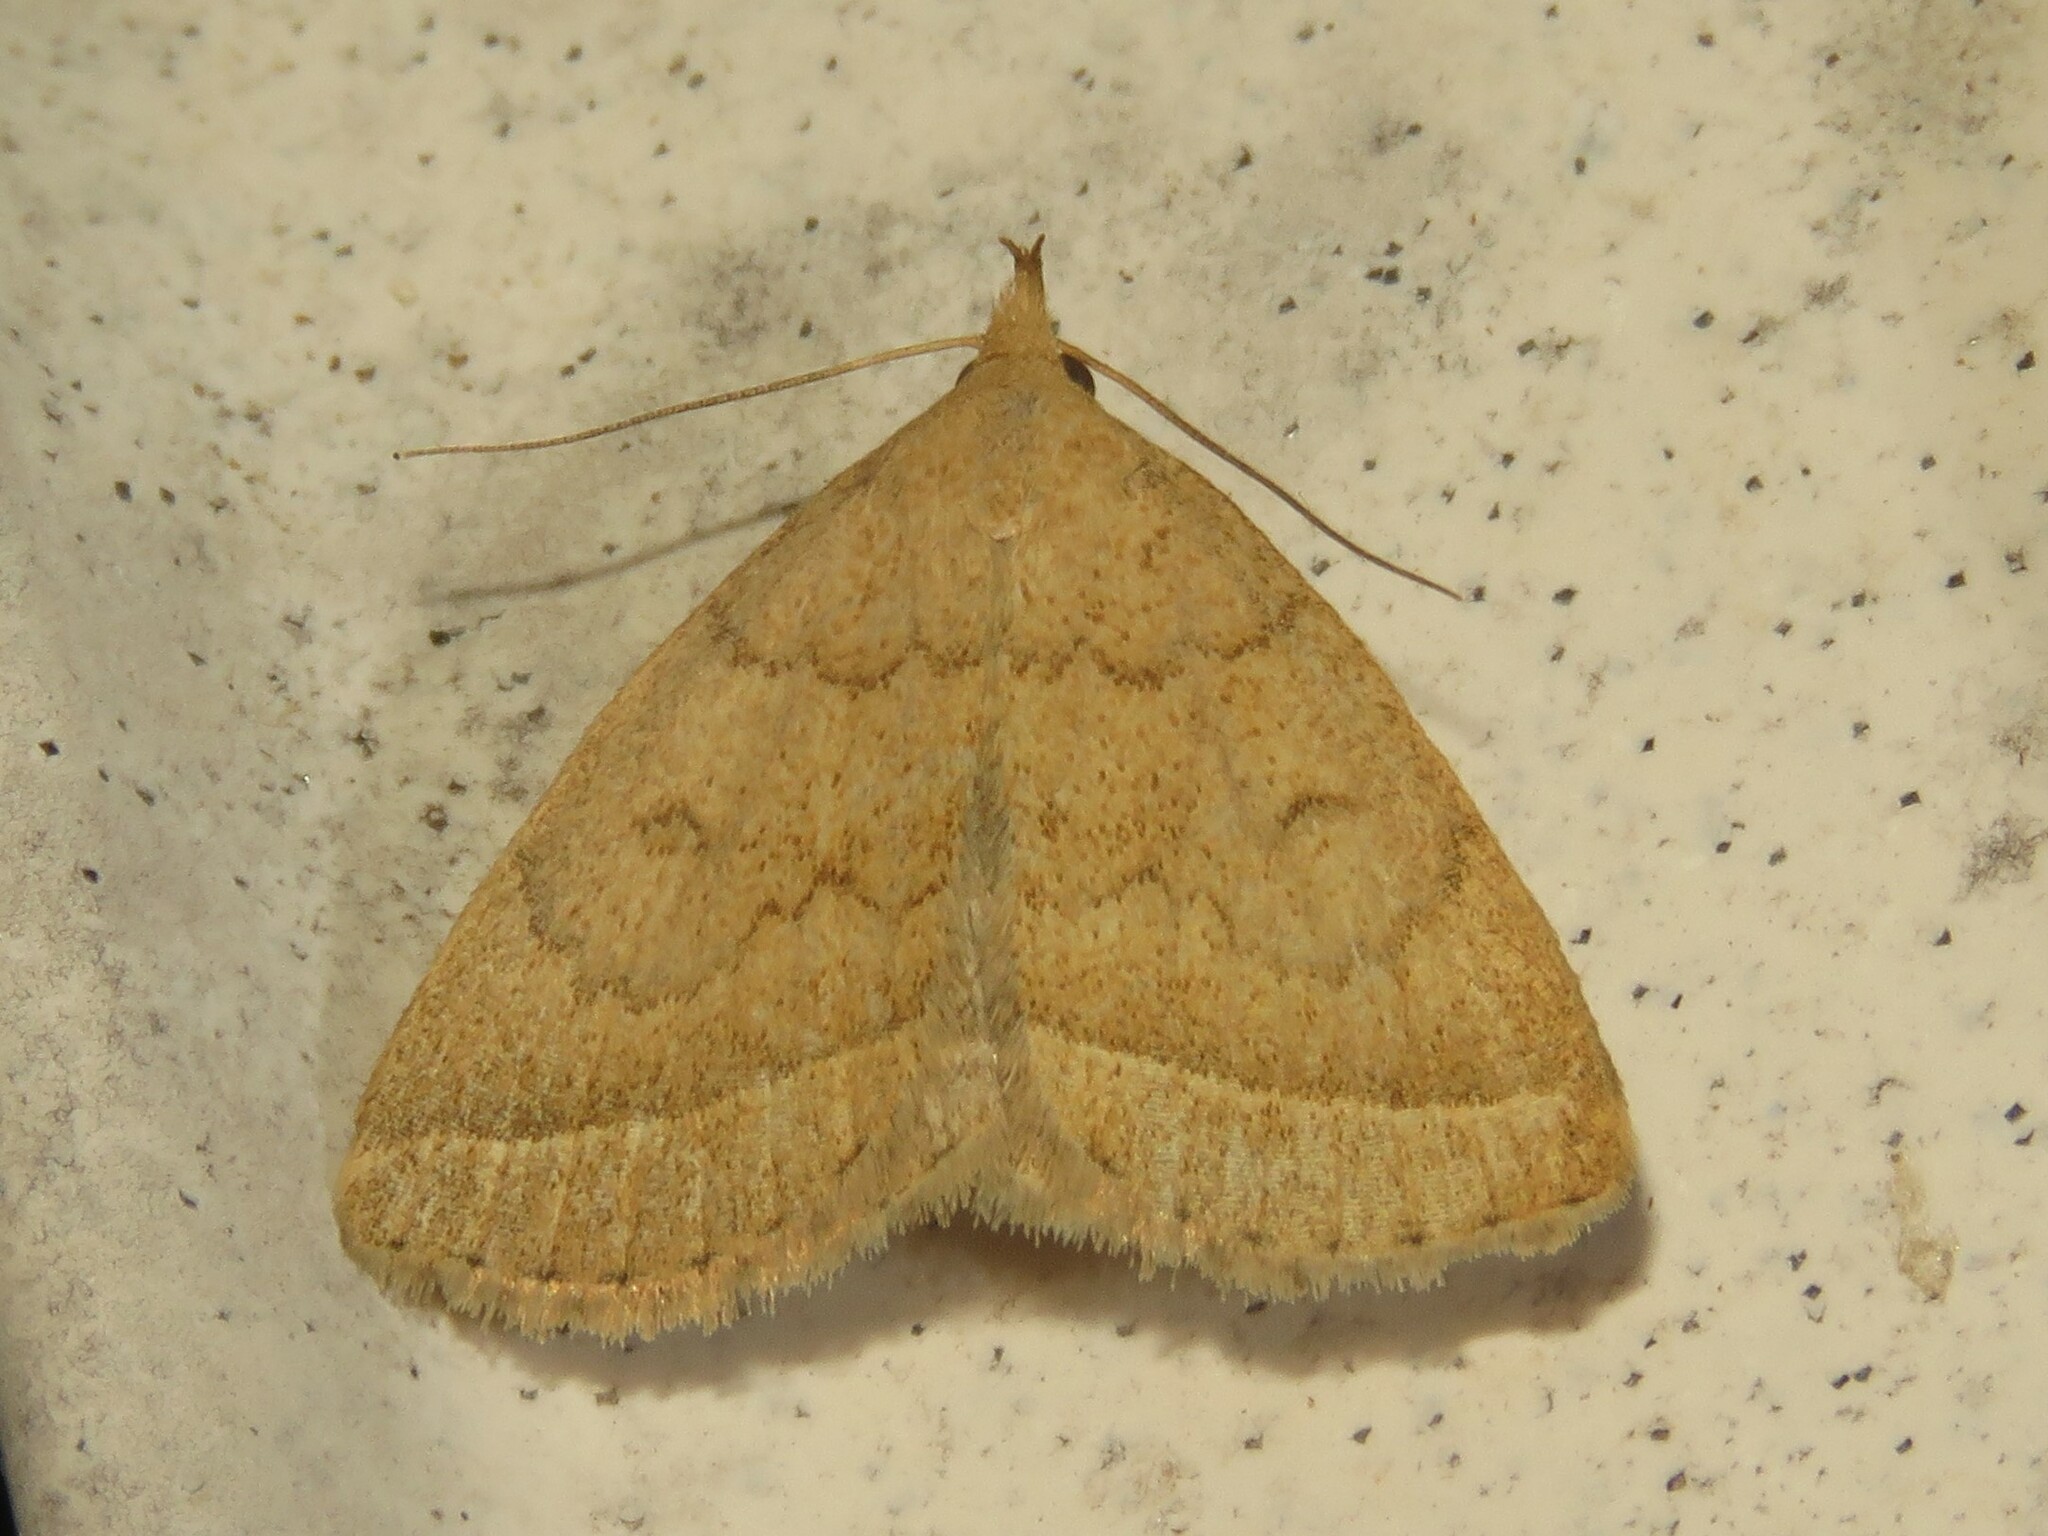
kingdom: Animalia
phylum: Arthropoda
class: Insecta
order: Lepidoptera
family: Erebidae
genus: Zanclognatha
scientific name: Zanclognatha jacchusalis
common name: Yellowish zanclognatha
